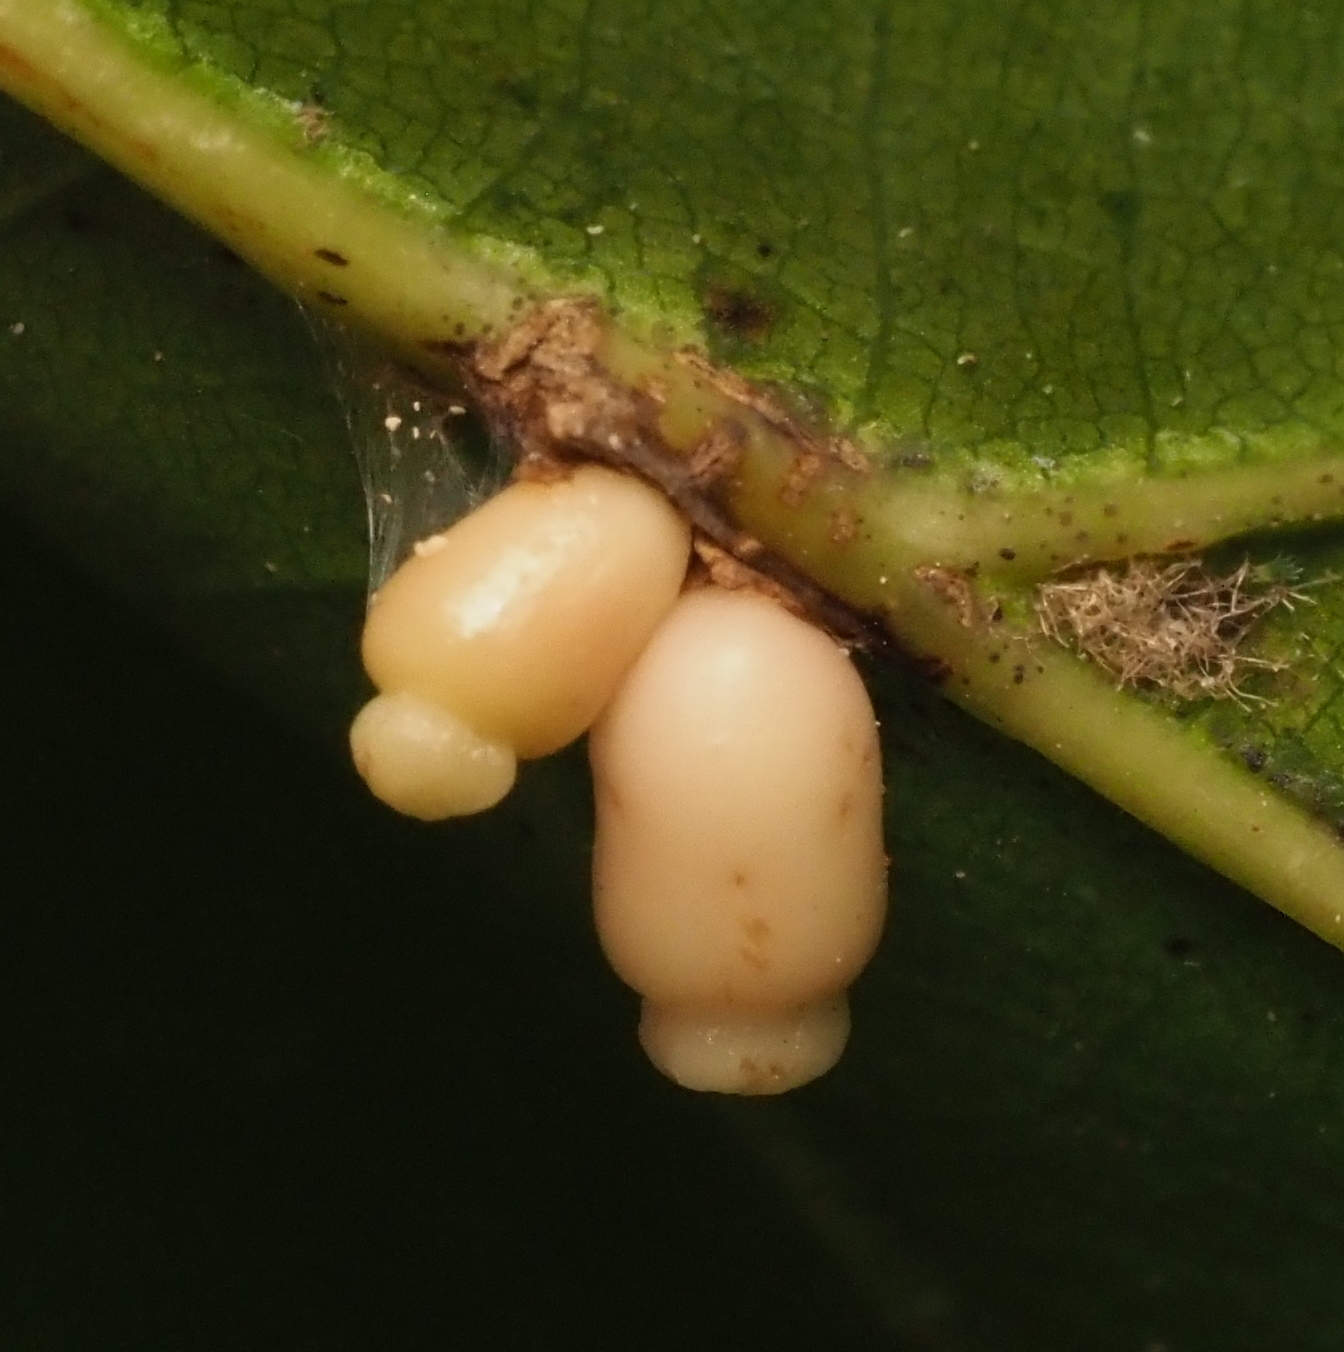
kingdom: Animalia
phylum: Arthropoda
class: Insecta
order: Hymenoptera
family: Cynipidae
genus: Kokkocynips
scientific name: Kokkocynips decidua
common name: Oak wheat gall
